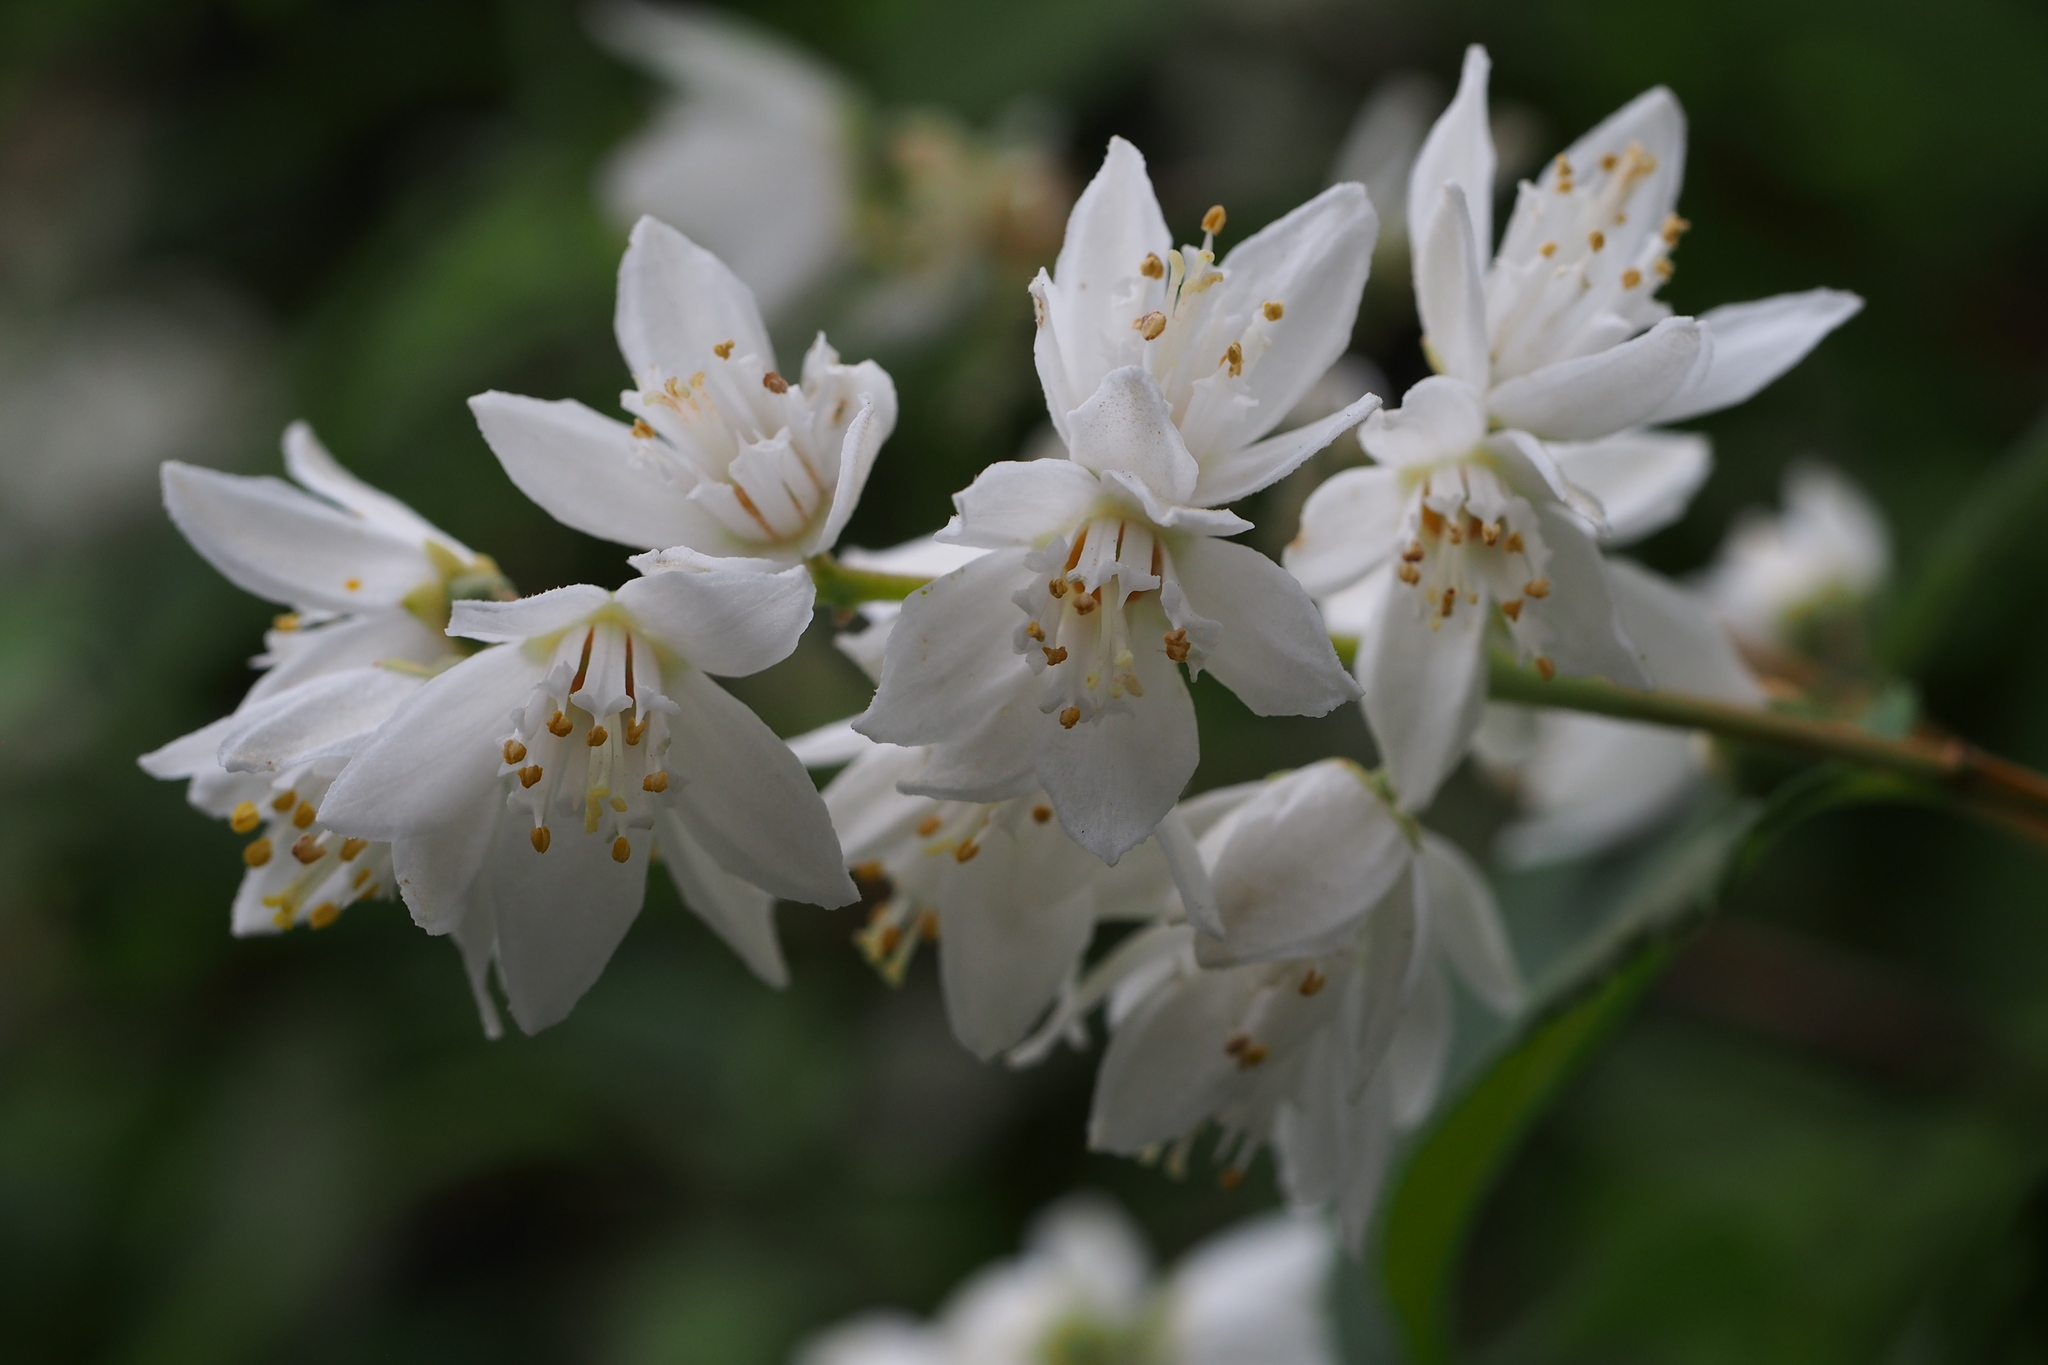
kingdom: Plantae
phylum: Tracheophyta
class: Magnoliopsida
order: Cornales
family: Hydrangeaceae
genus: Deutzia
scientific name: Deutzia crenata
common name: Deutzia
